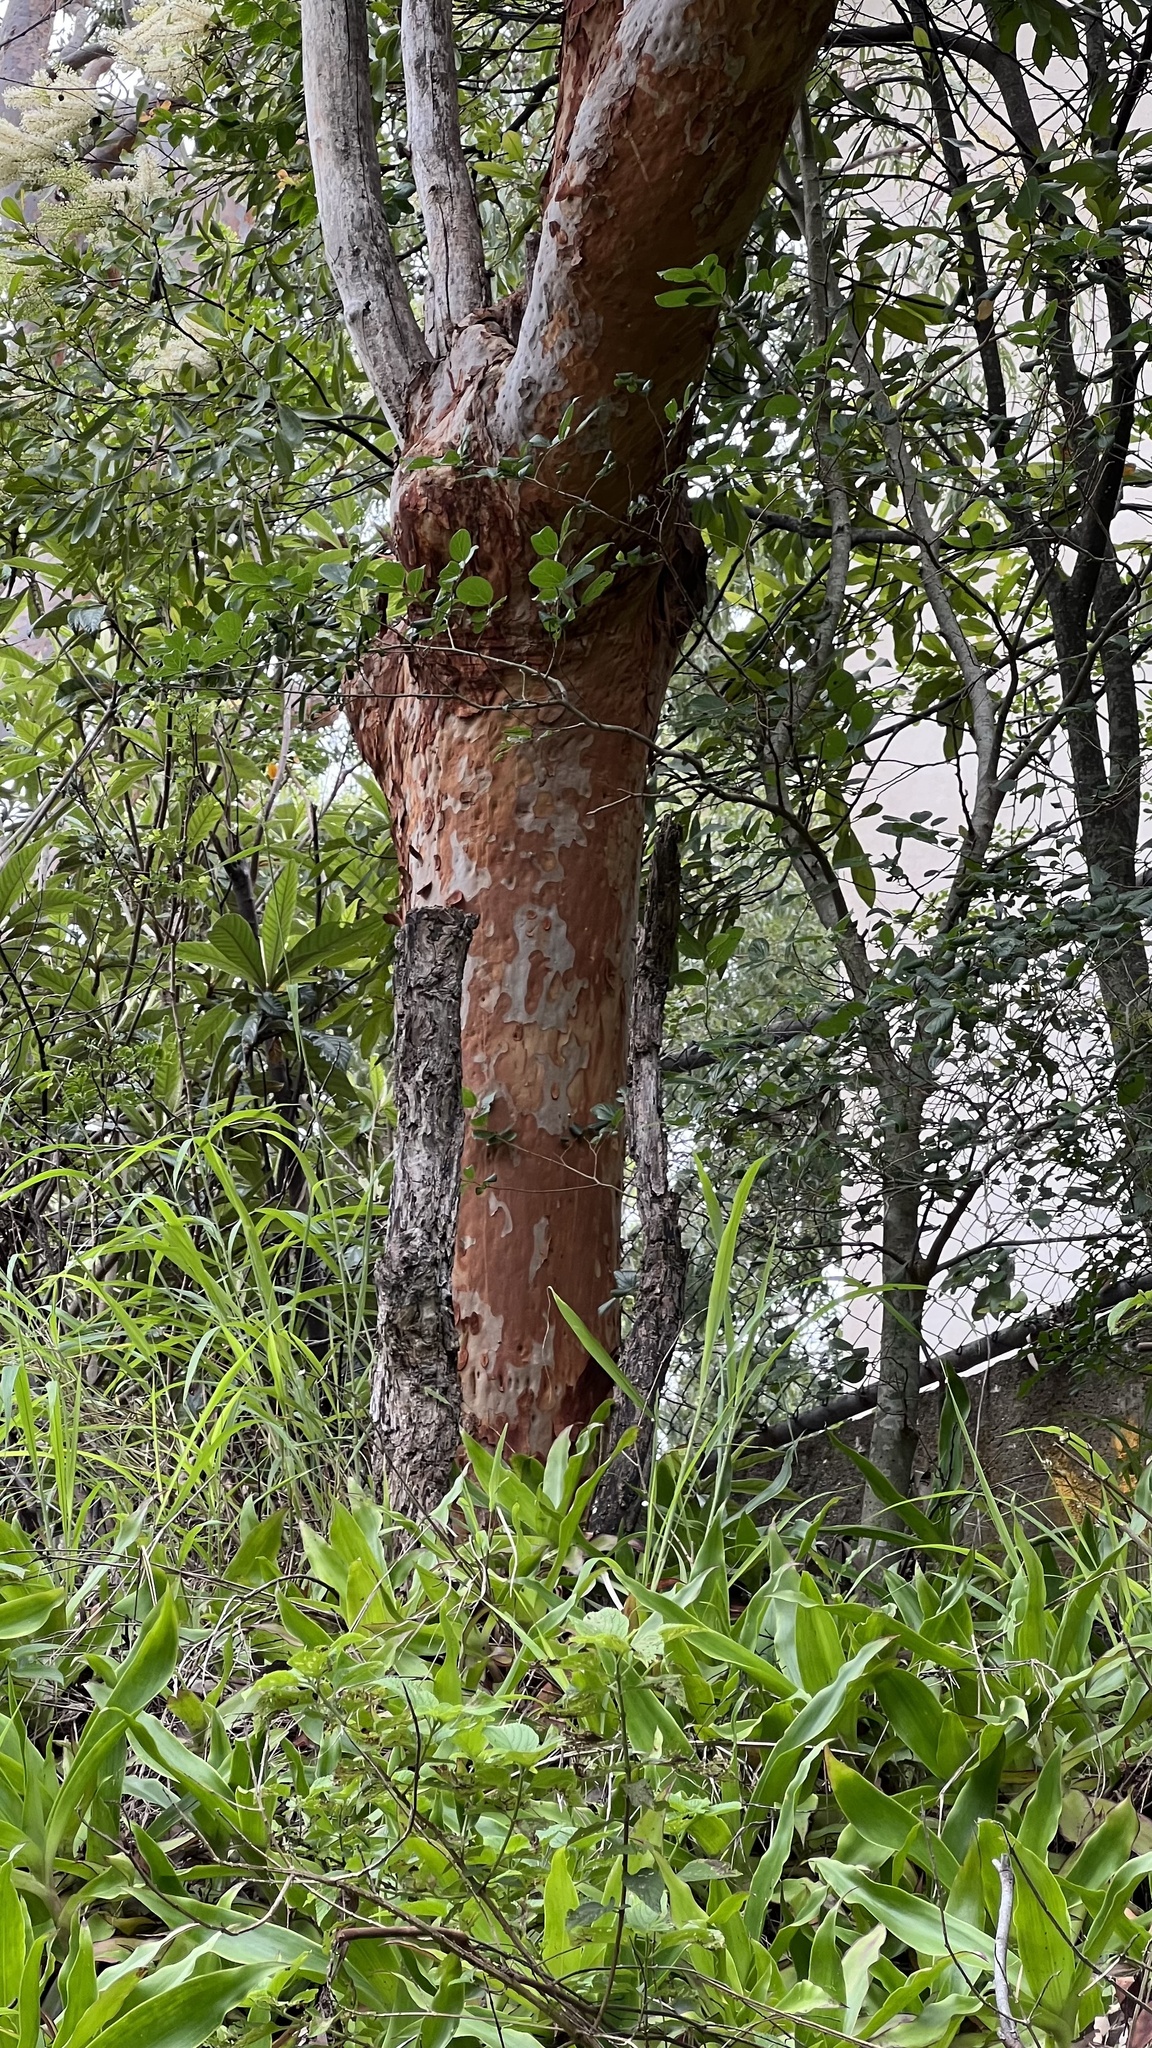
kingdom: Plantae
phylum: Tracheophyta
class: Magnoliopsida
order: Myrtales
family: Myrtaceae
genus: Angophora
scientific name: Angophora leiocarpa
